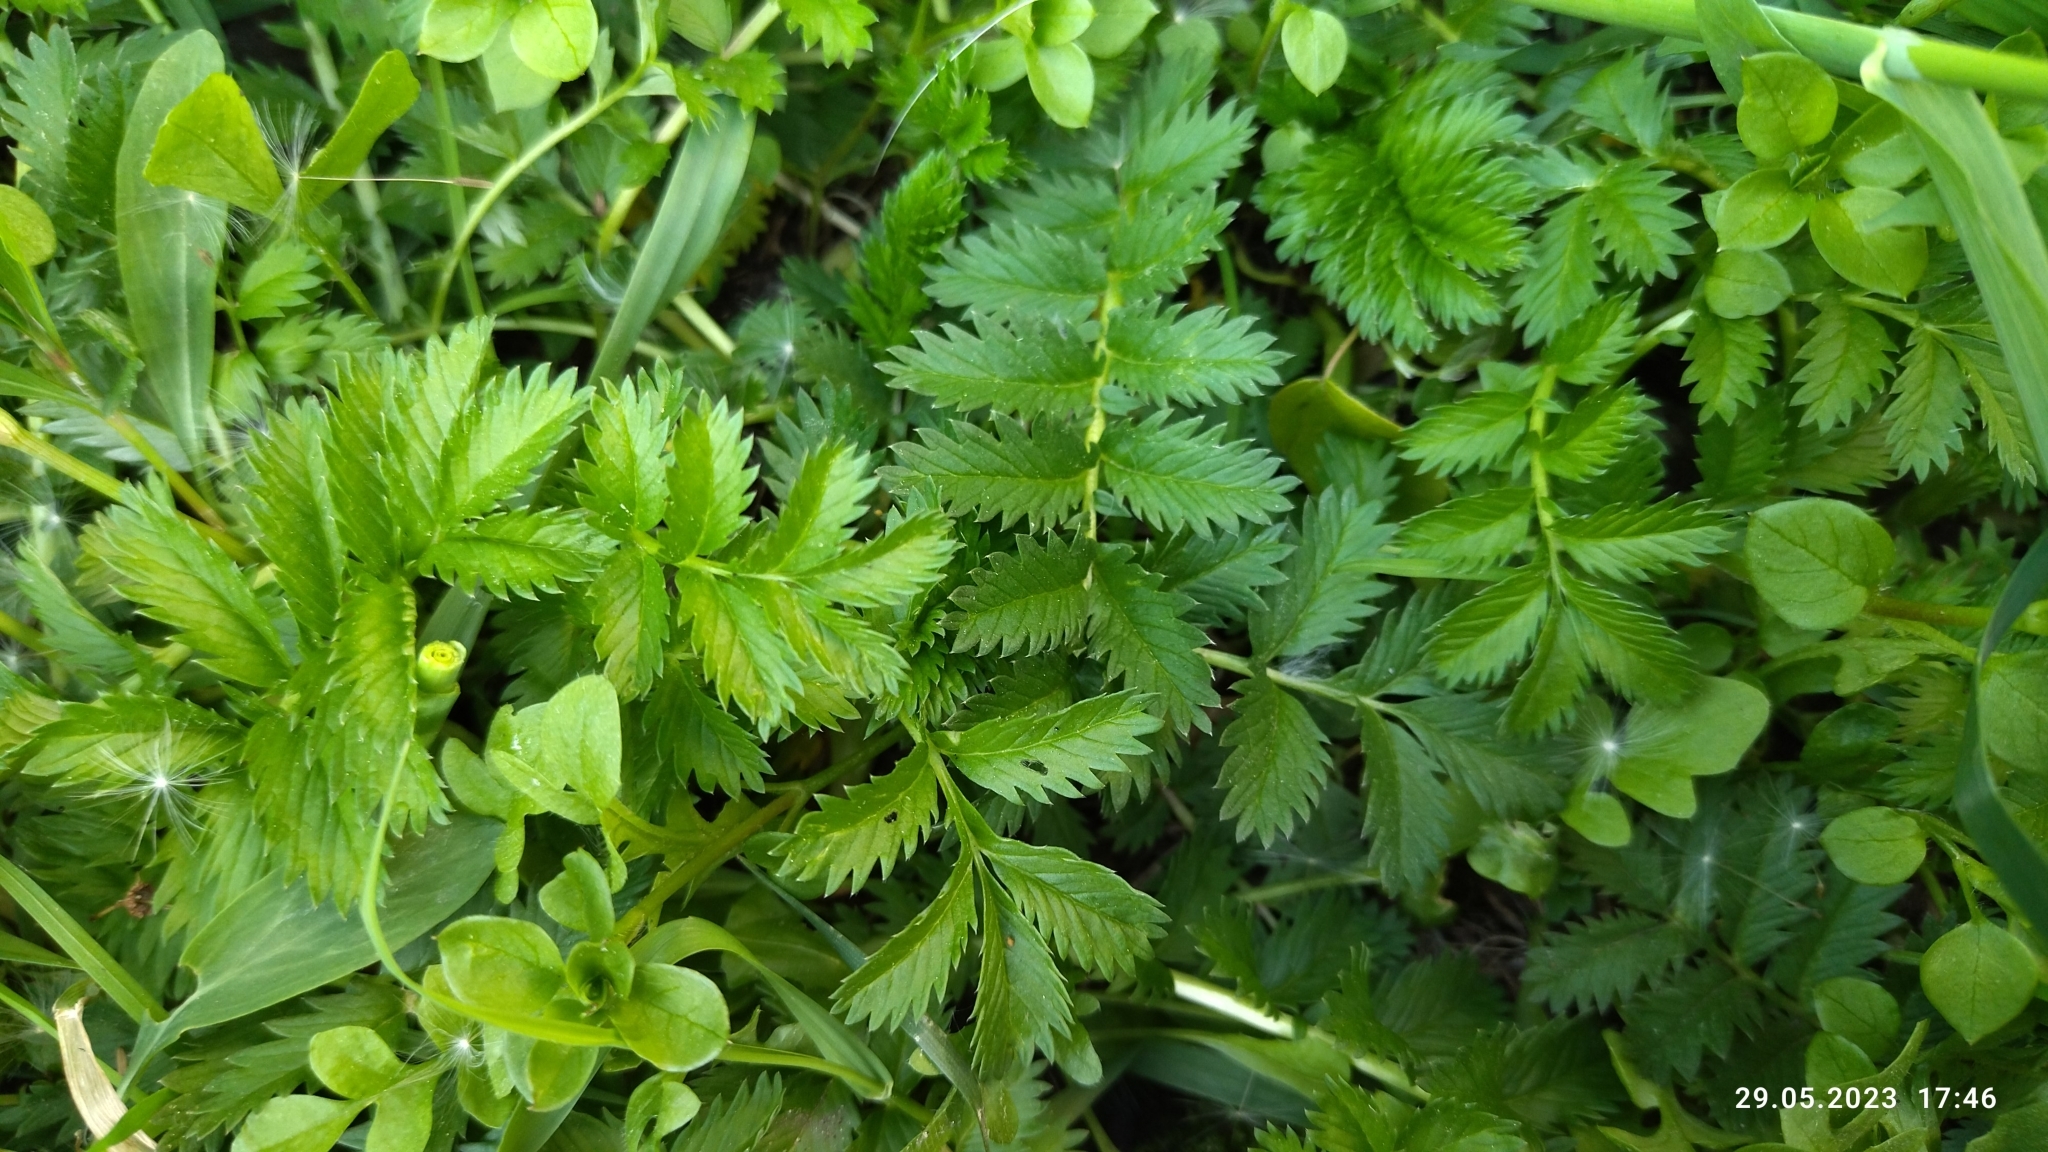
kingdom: Plantae
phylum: Tracheophyta
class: Magnoliopsida
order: Rosales
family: Rosaceae
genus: Argentina
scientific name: Argentina anserina
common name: Common silverweed
